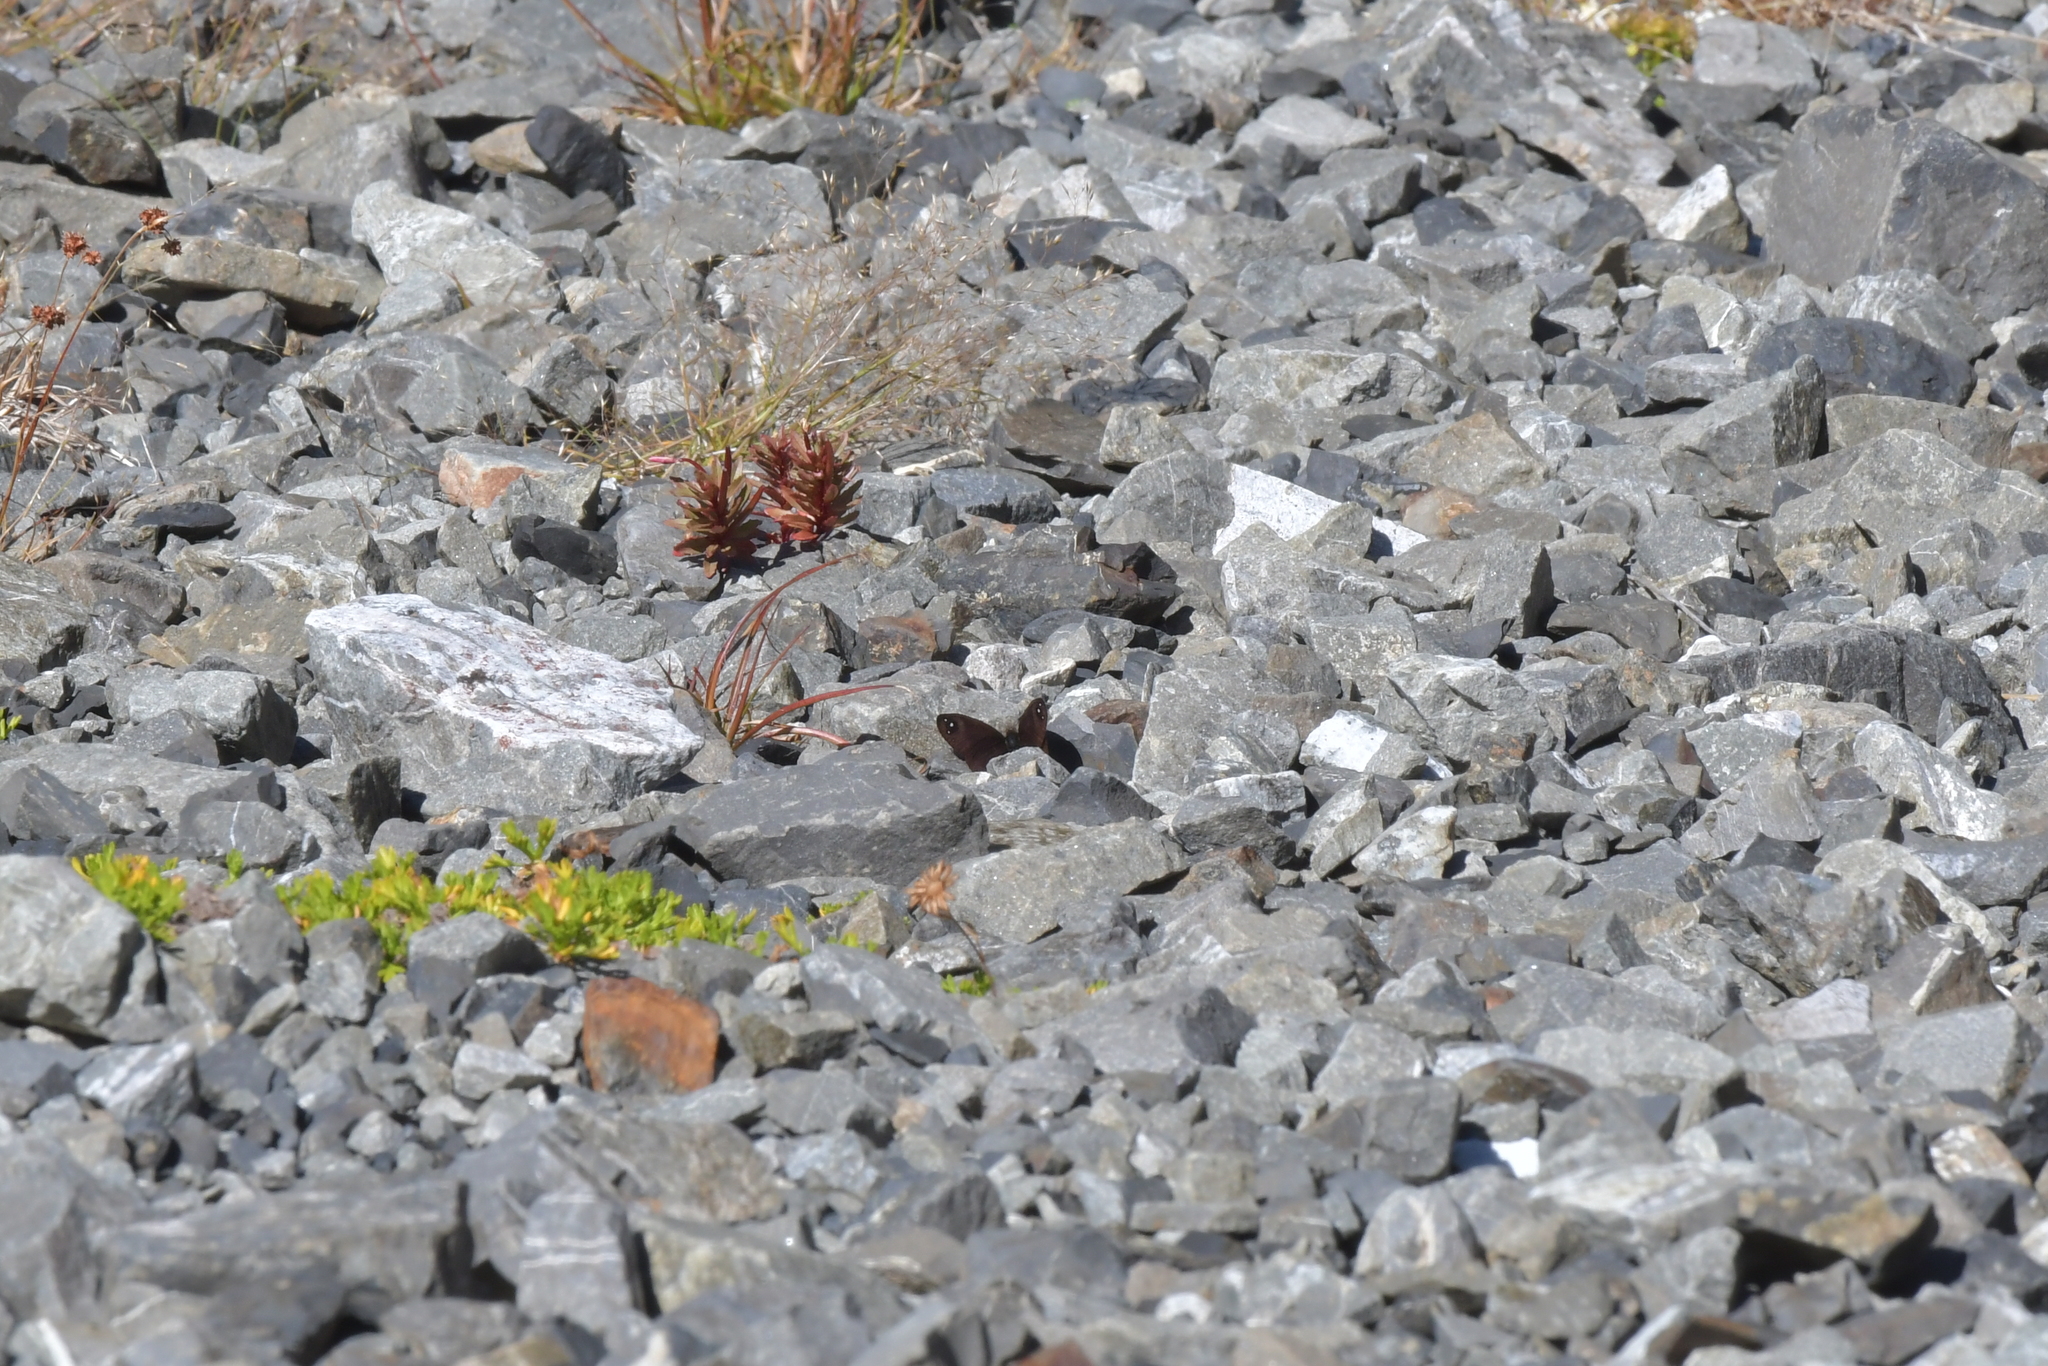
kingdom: Animalia
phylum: Arthropoda
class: Insecta
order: Lepidoptera
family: Nymphalidae
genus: Erebia
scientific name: Erebia Percnodaimon merula
